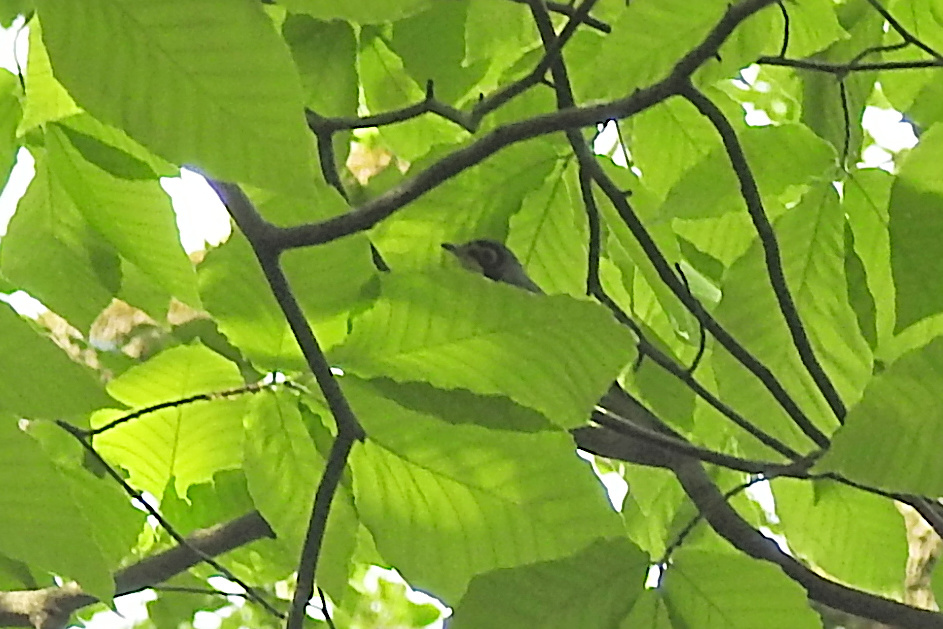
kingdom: Animalia
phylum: Chordata
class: Aves
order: Passeriformes
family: Parulidae
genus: Cardellina
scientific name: Cardellina canadensis
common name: Canada warbler
